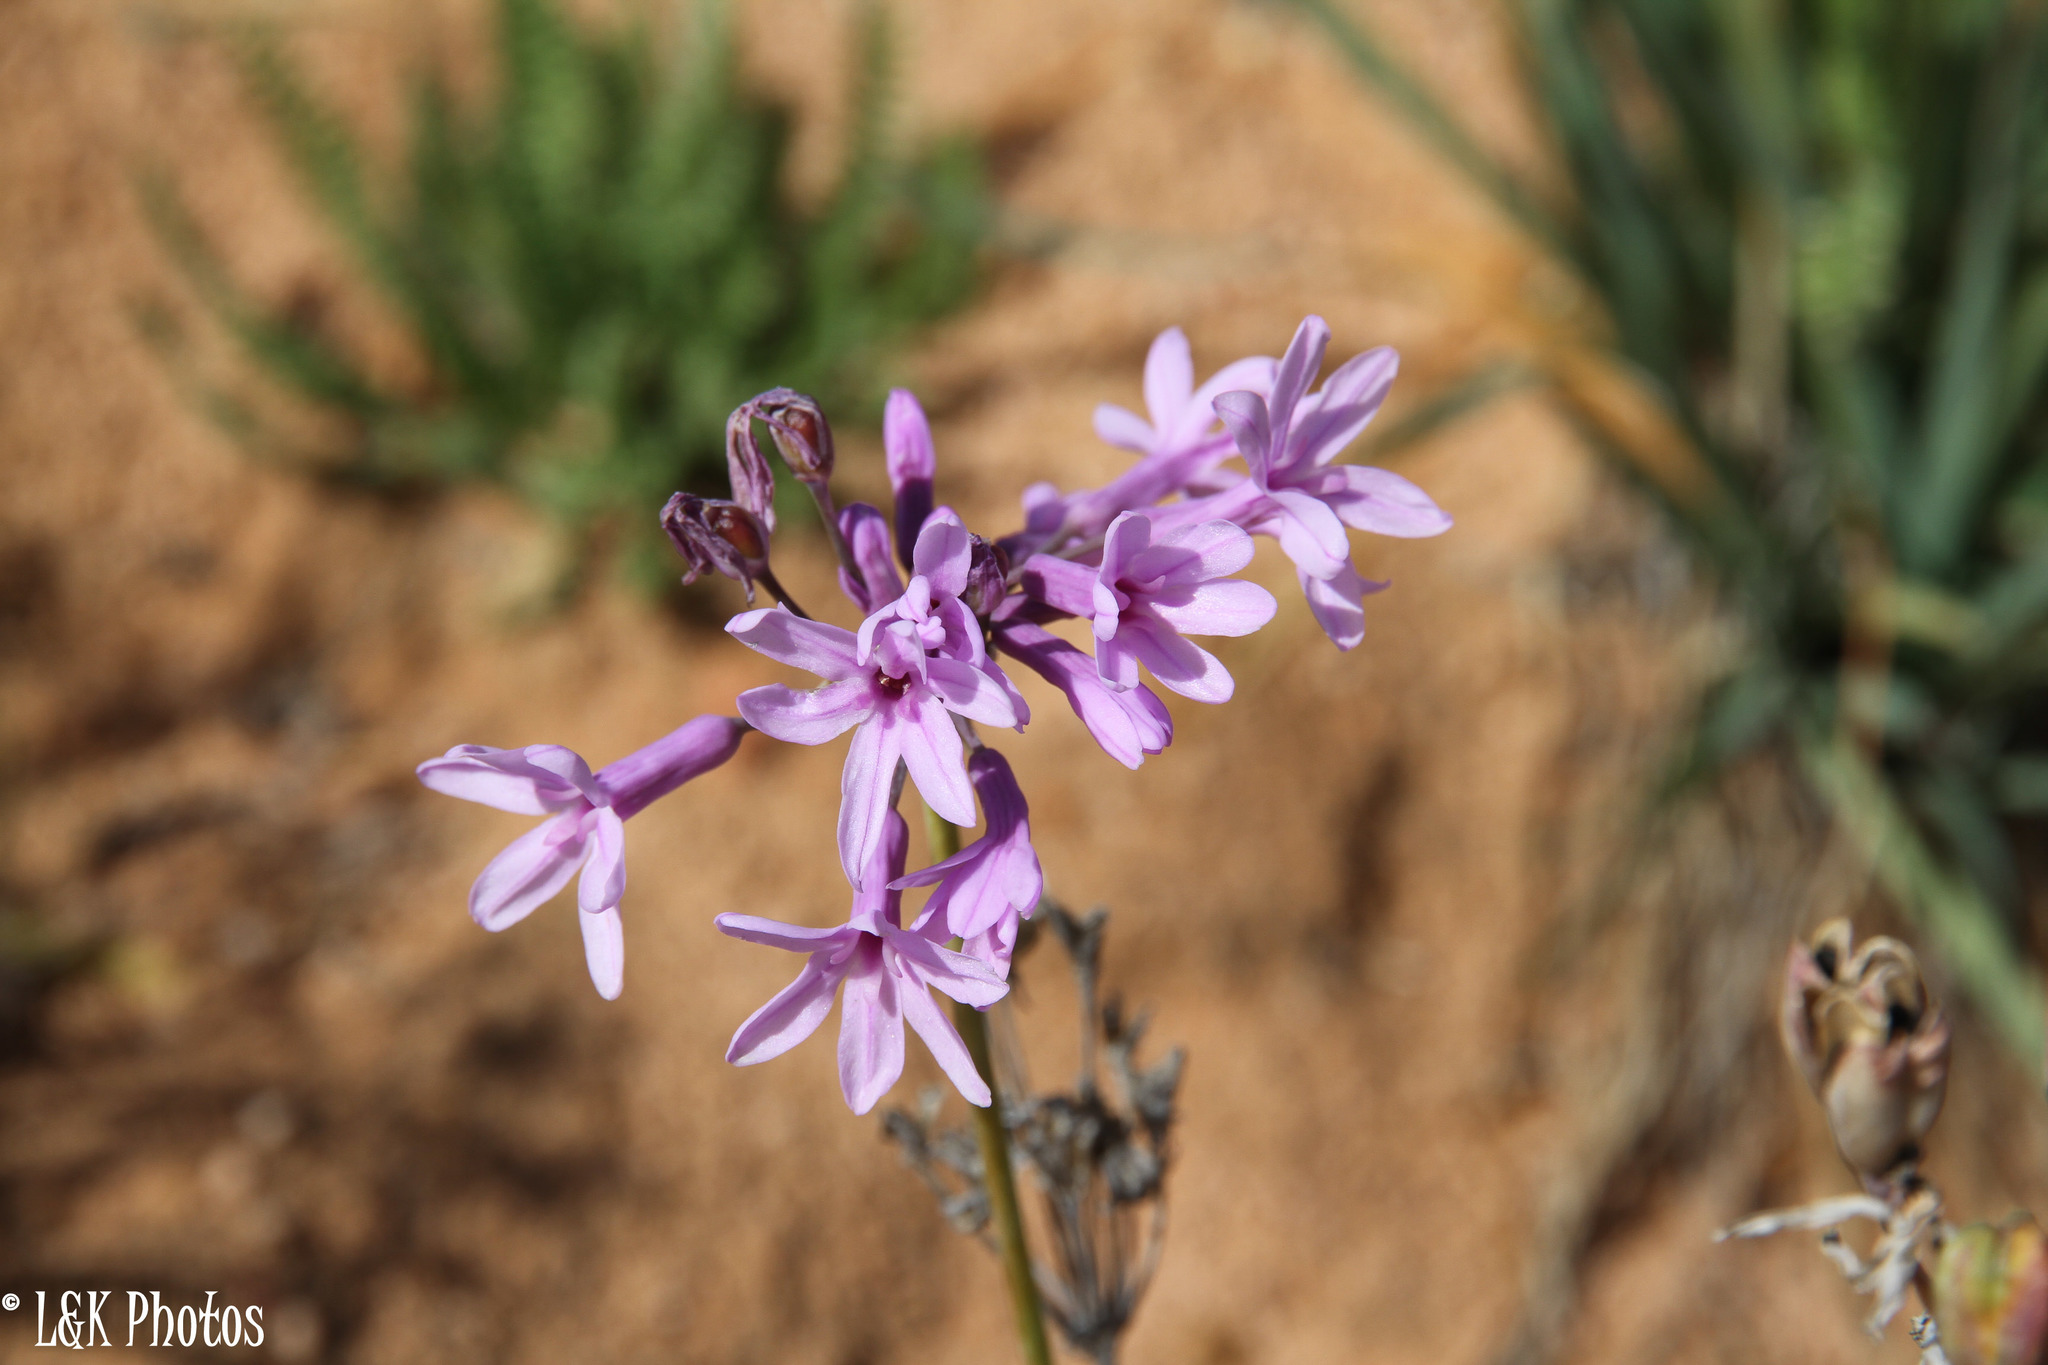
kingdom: Plantae
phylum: Tracheophyta
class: Liliopsida
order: Asparagales
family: Amaryllidaceae
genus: Tulbaghia
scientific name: Tulbaghia violacea
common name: Society garlic
